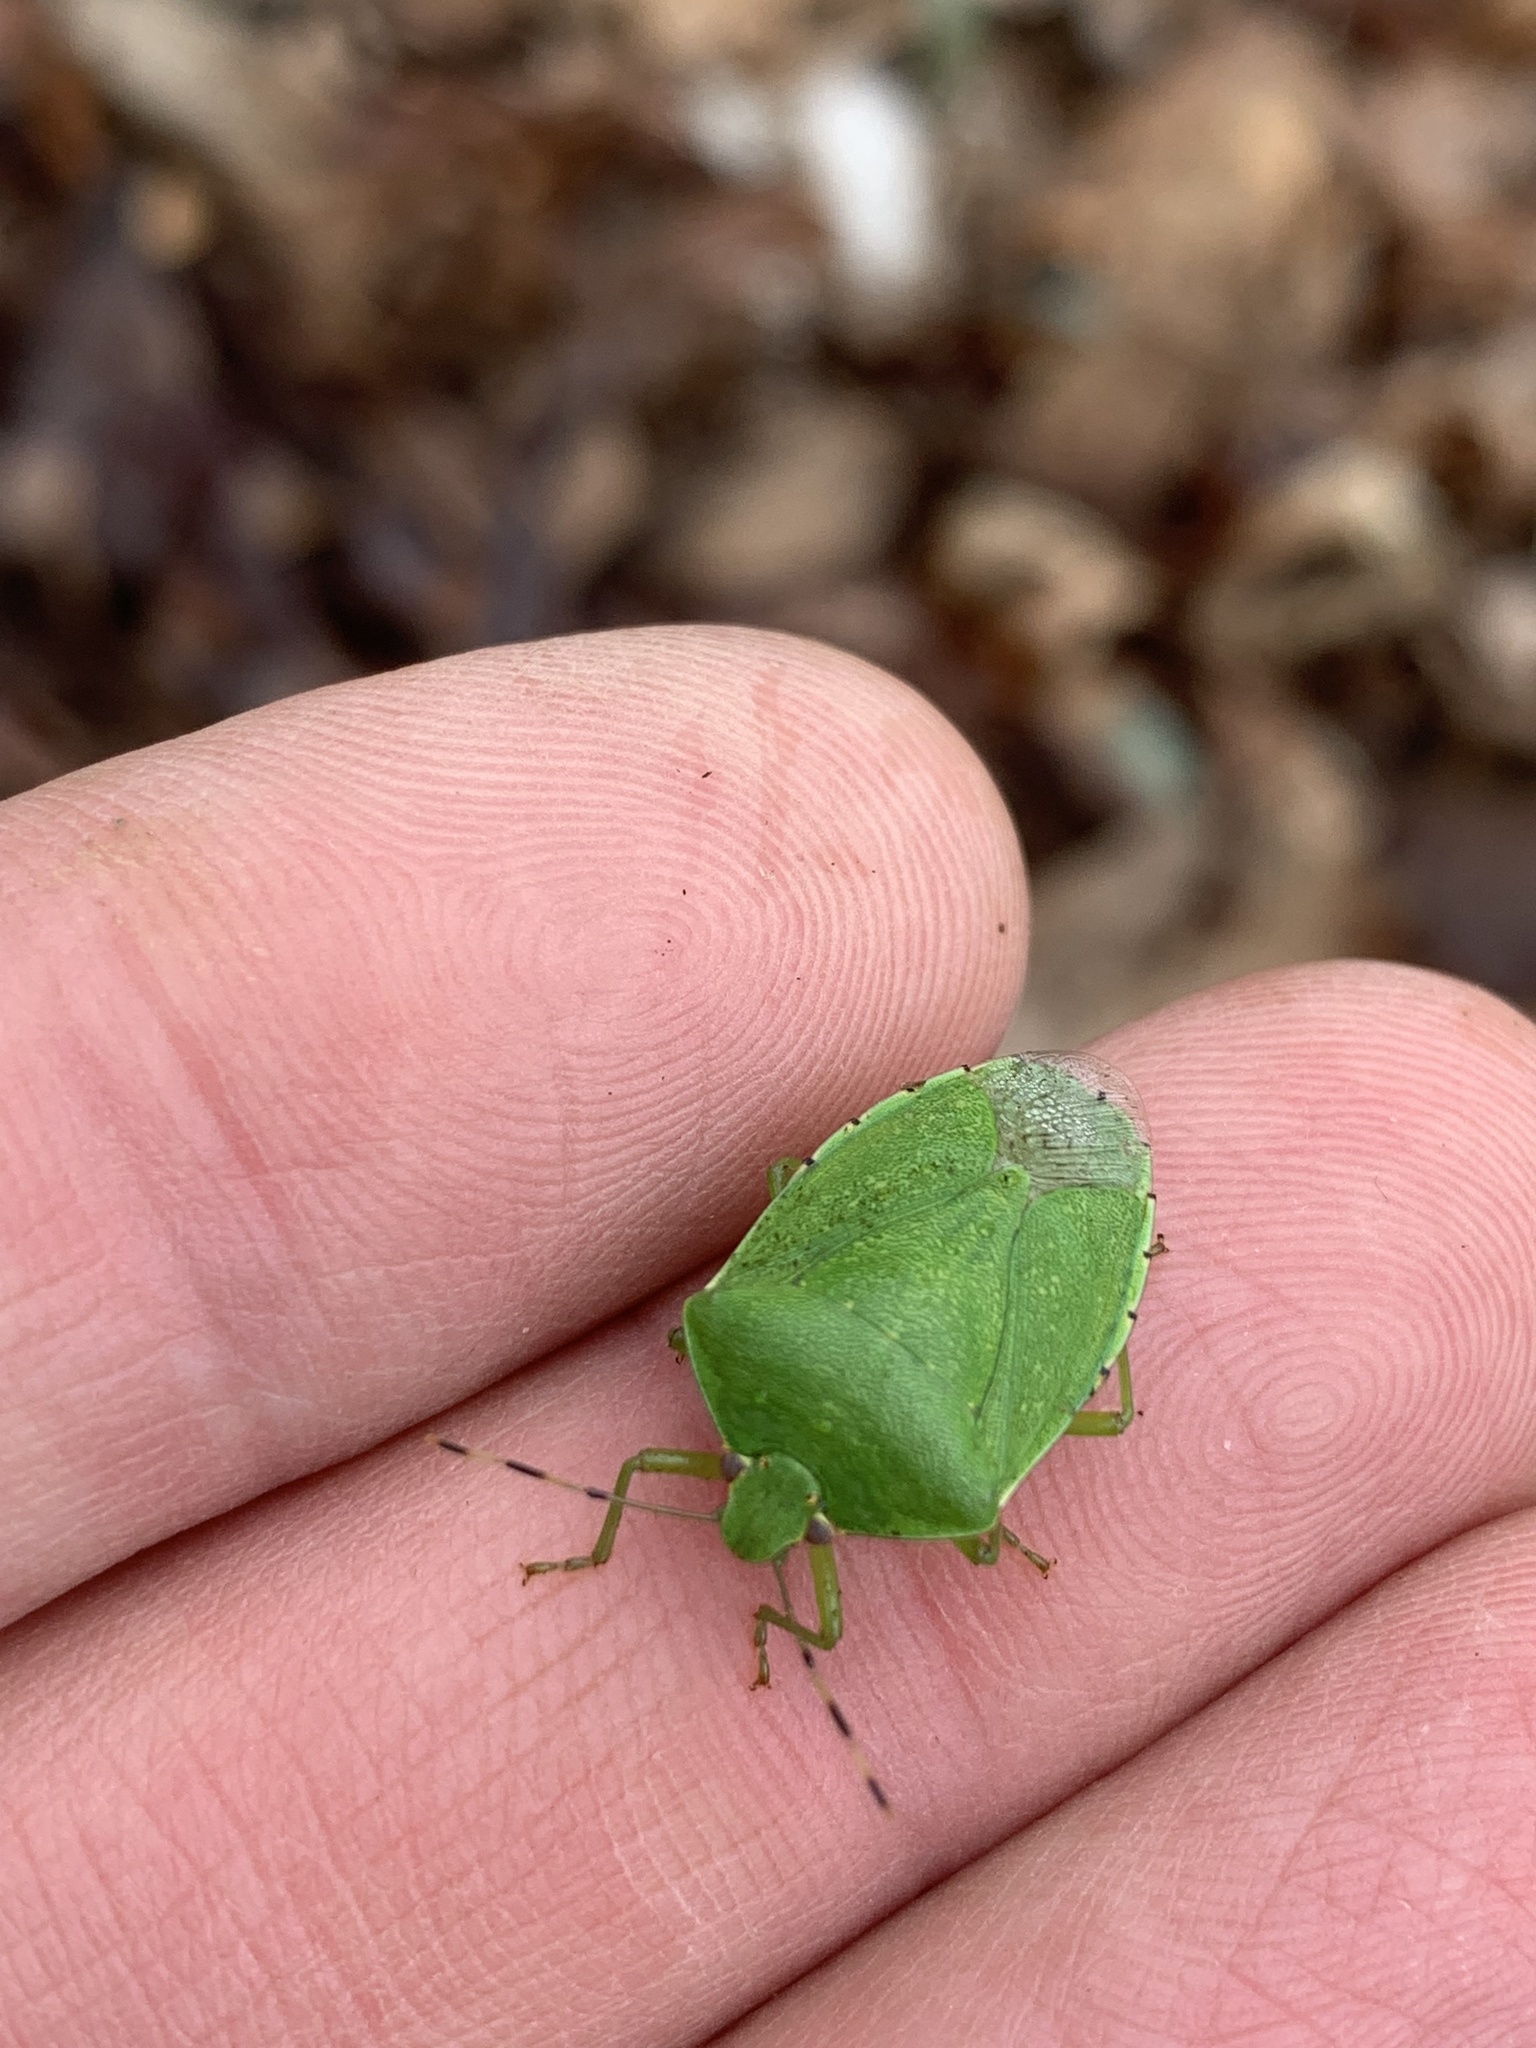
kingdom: Animalia
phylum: Arthropoda
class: Insecta
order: Hemiptera
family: Pentatomidae
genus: Chinavia
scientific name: Chinavia hilaris
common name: Green stink bug
